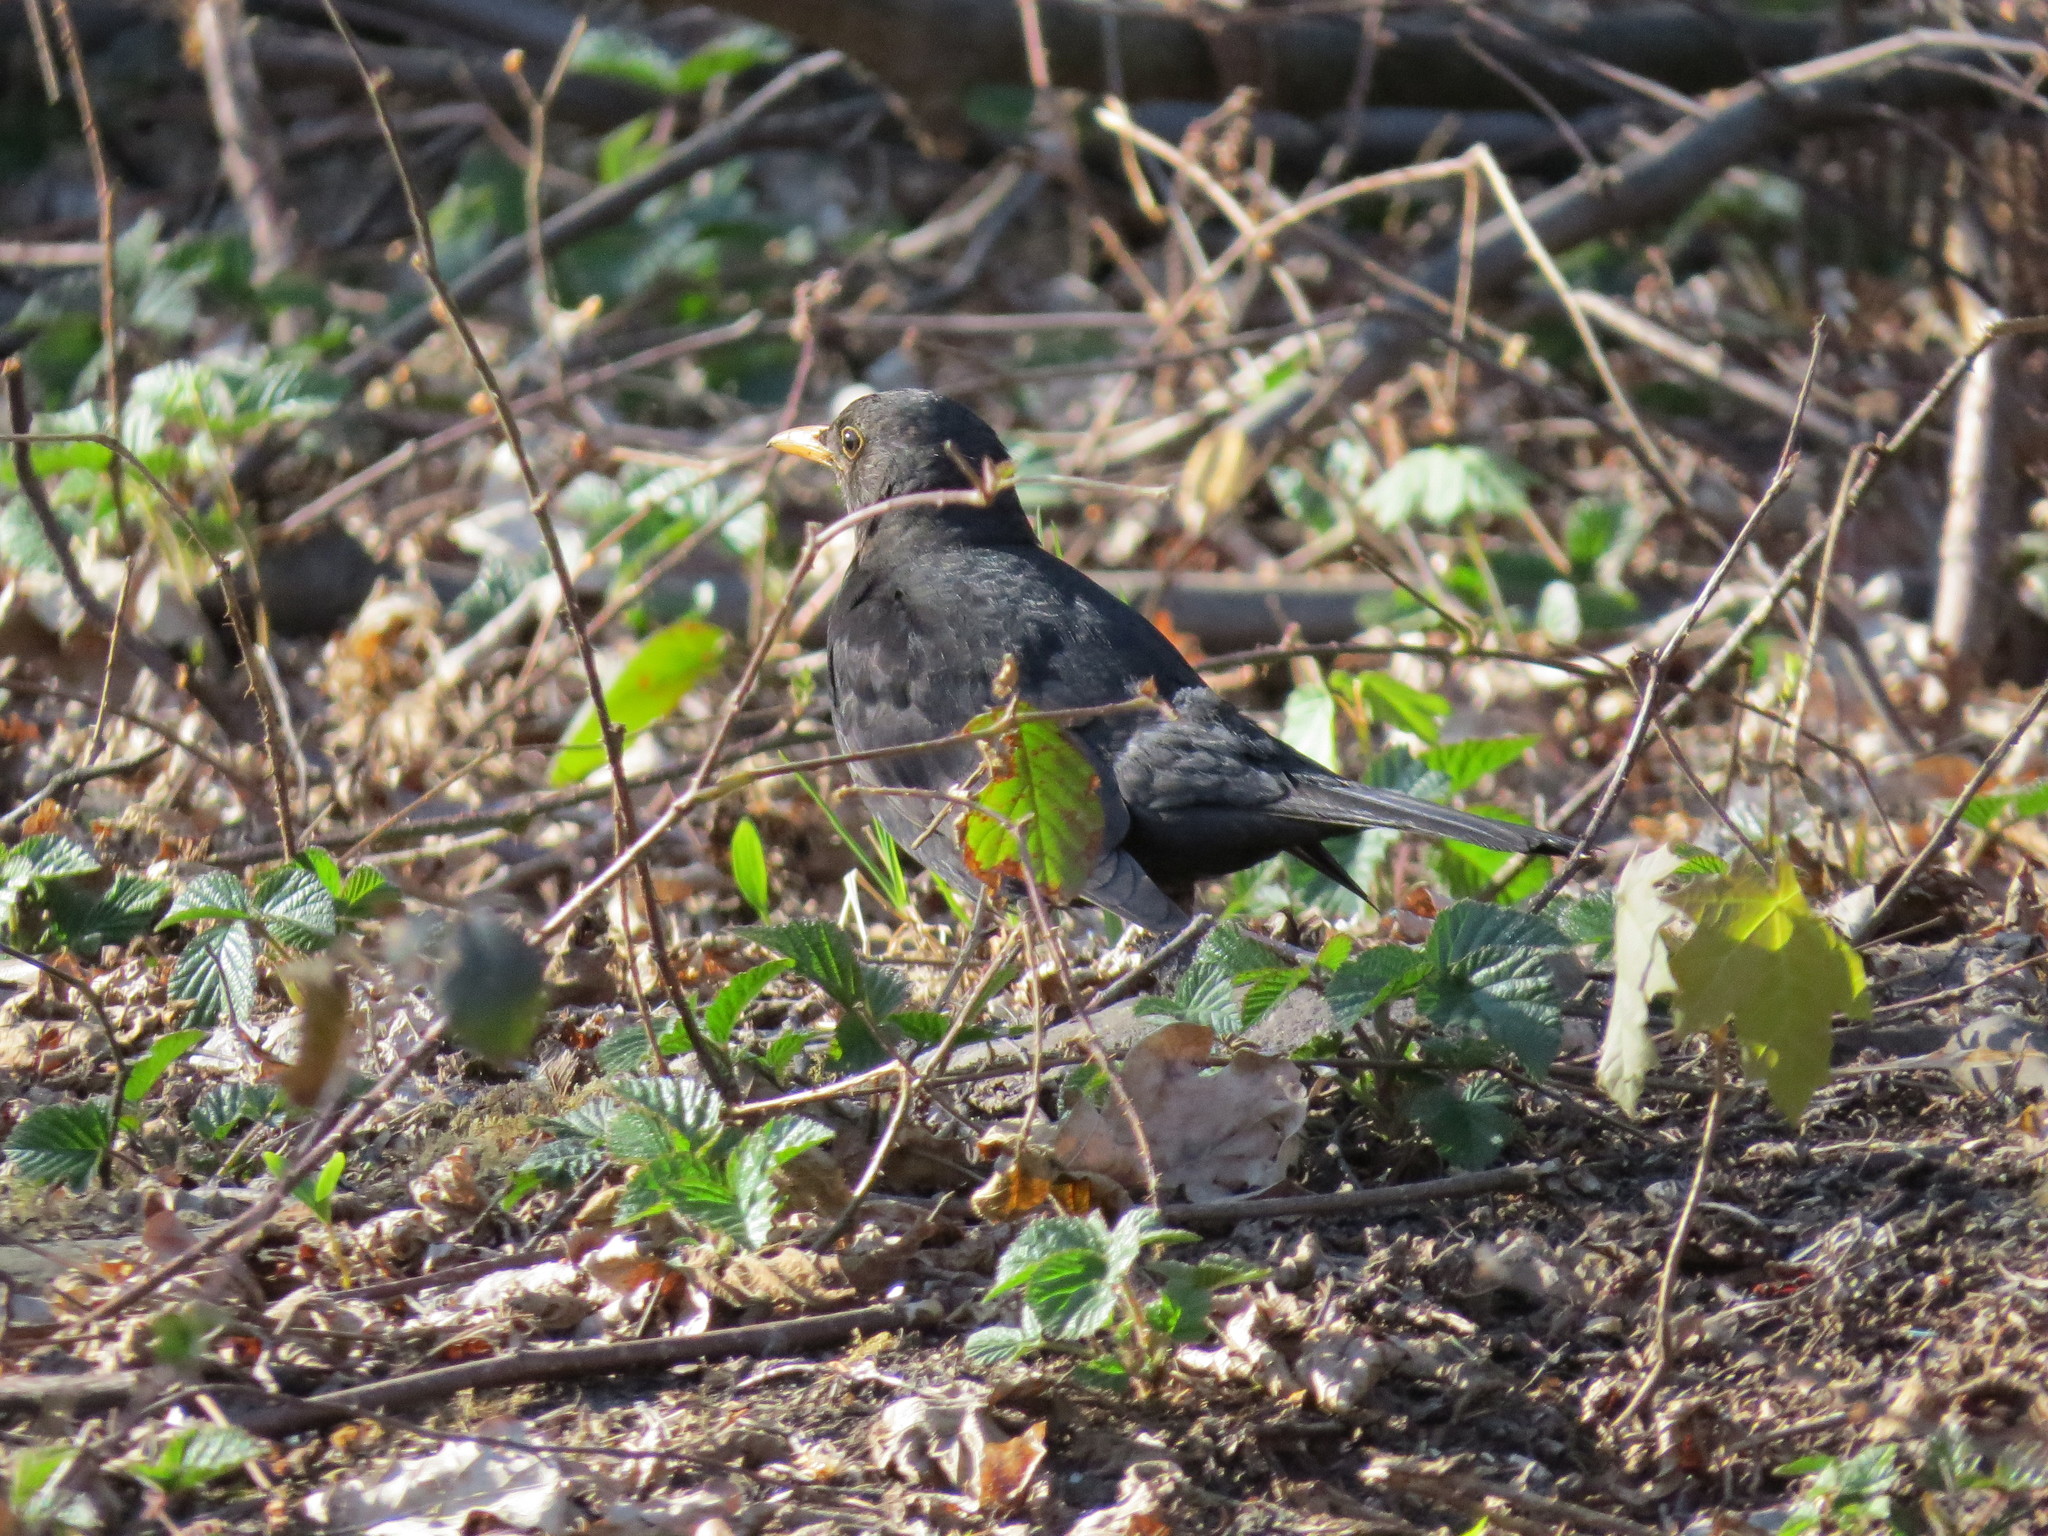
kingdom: Animalia
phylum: Chordata
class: Aves
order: Passeriformes
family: Turdidae
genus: Turdus
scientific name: Turdus merula
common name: Common blackbird
